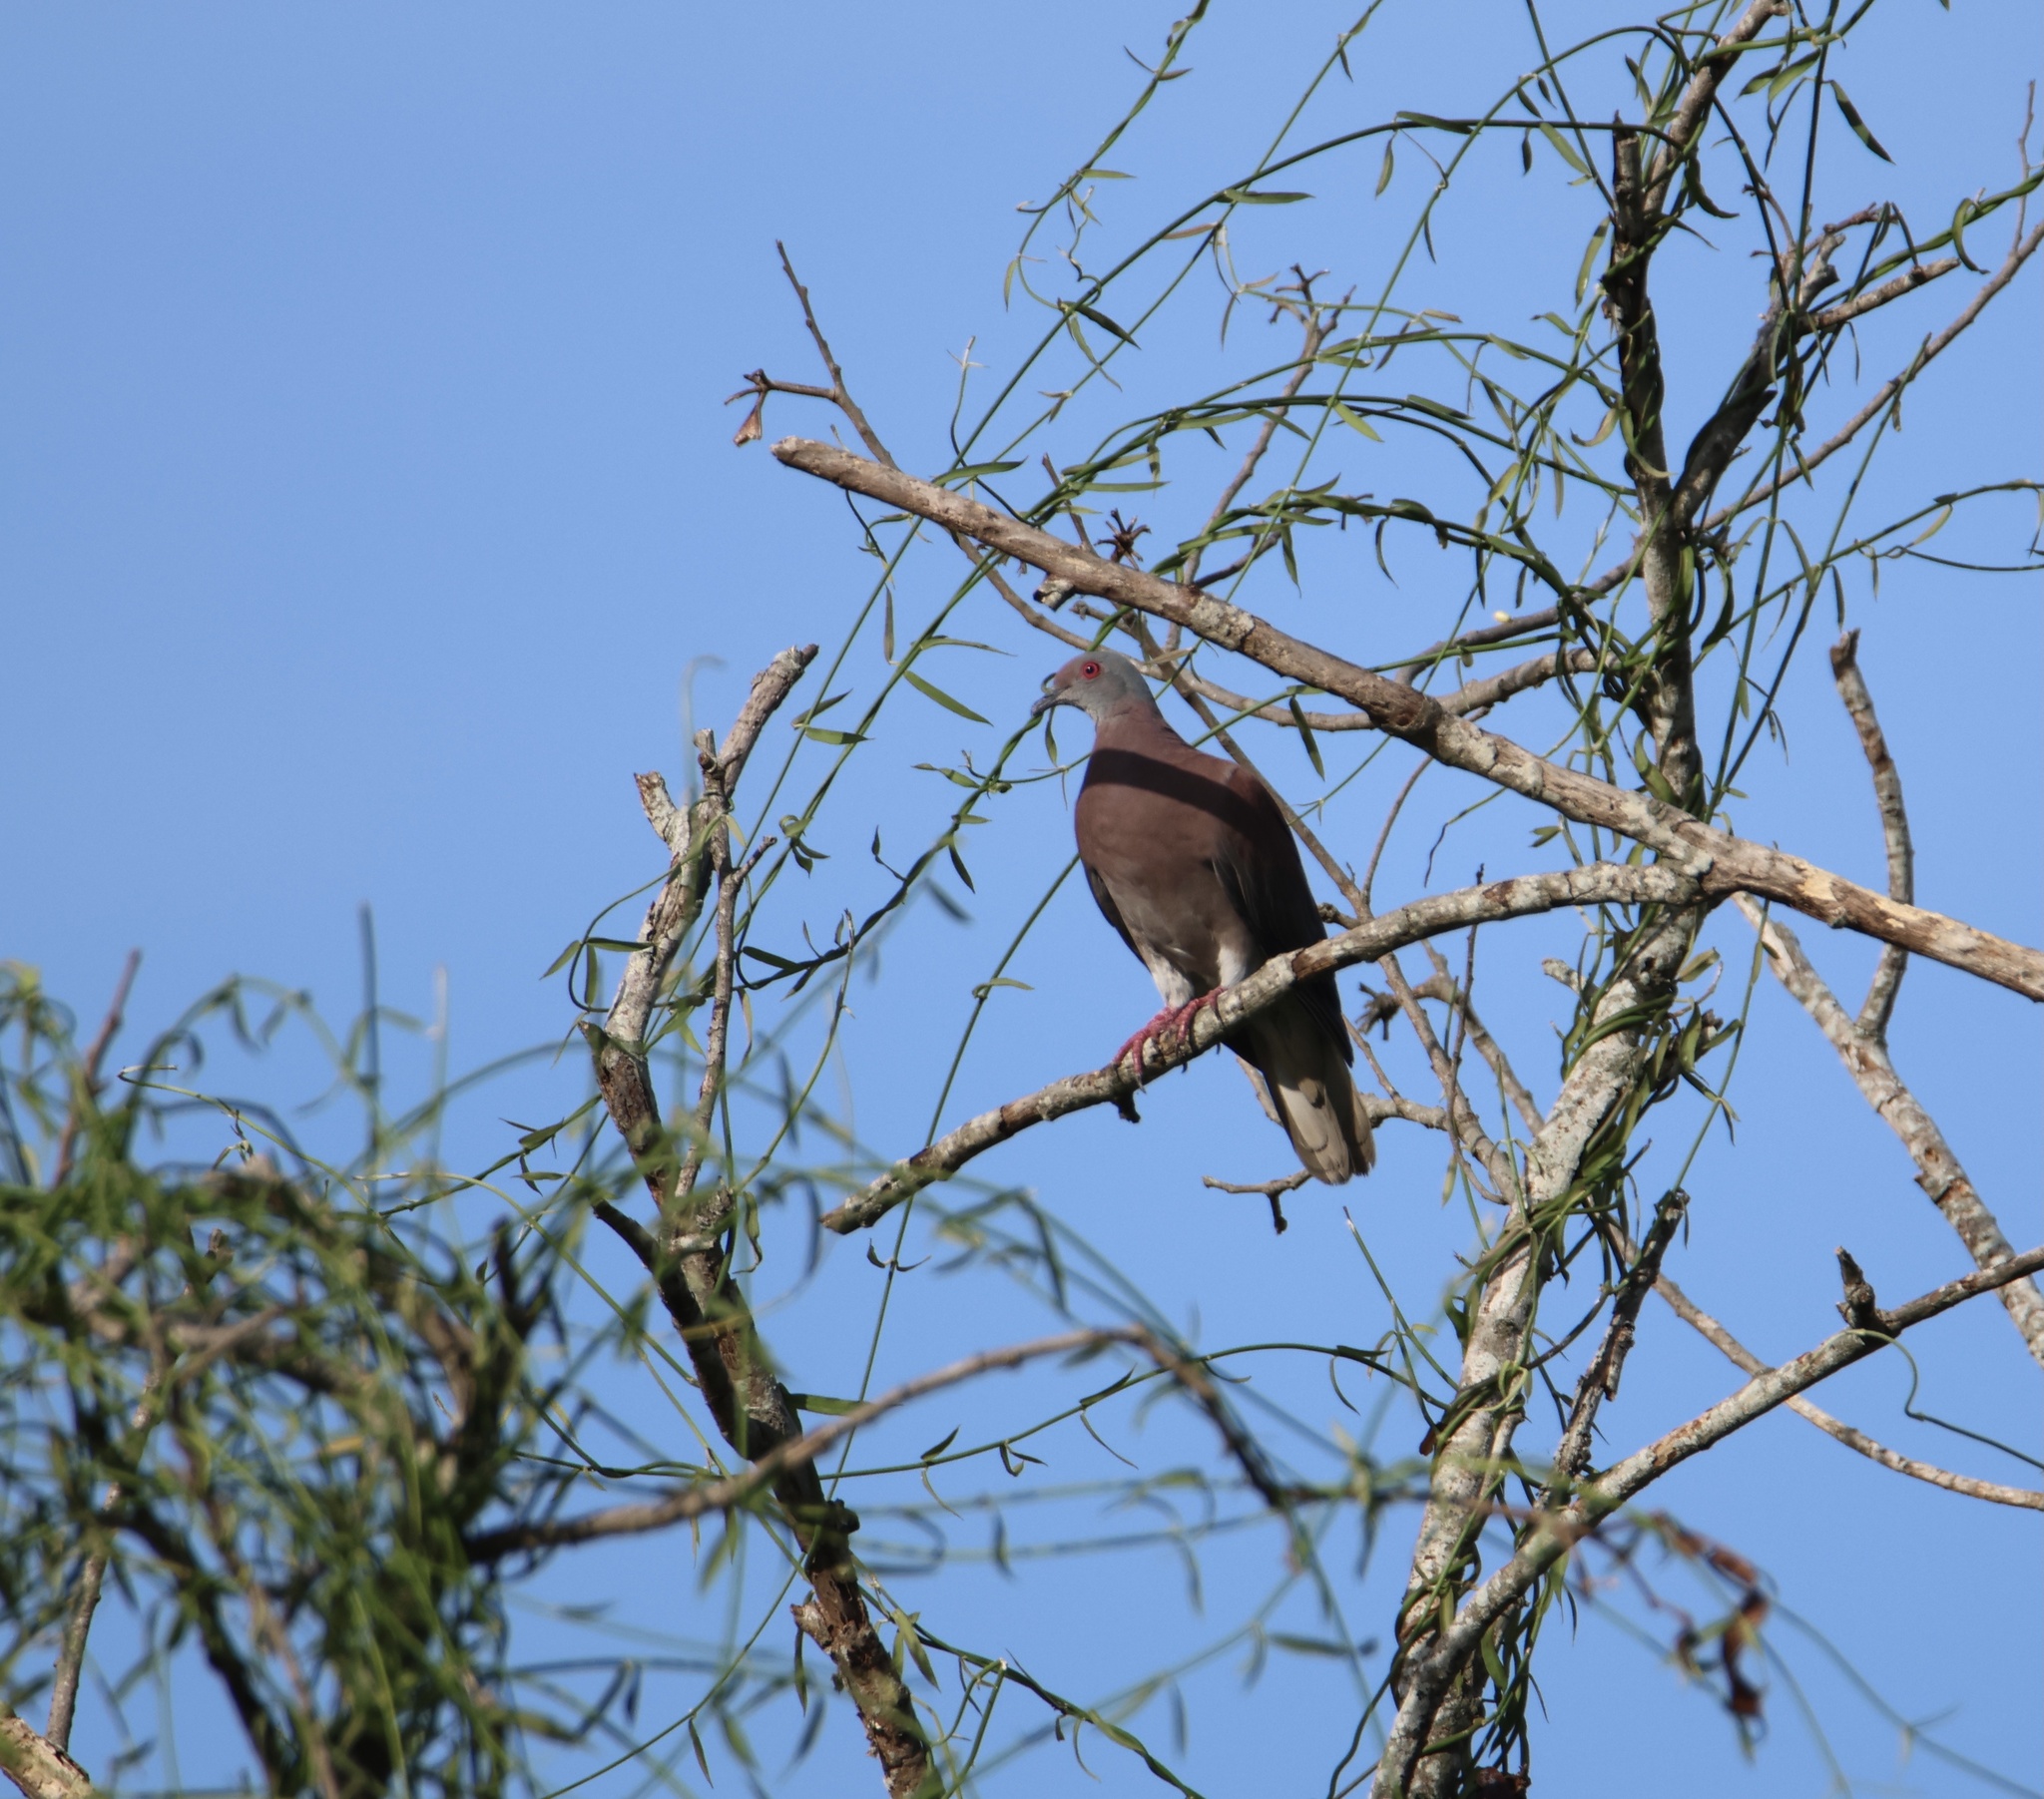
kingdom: Animalia
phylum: Chordata
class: Aves
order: Columbiformes
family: Columbidae
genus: Patagioenas
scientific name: Patagioenas cayennensis
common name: Pale-vented pigeon
